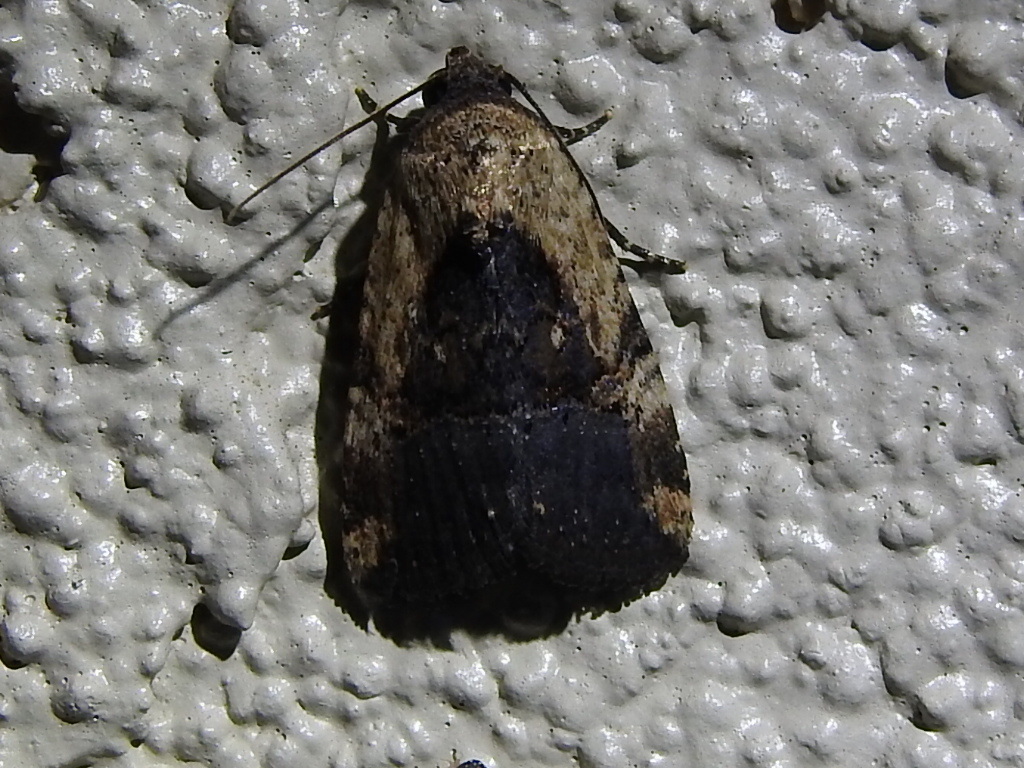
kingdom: Animalia
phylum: Arthropoda
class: Insecta
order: Lepidoptera
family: Noctuidae
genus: Elaphria
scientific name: Elaphria chalcedonia
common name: Chalcedony midget
